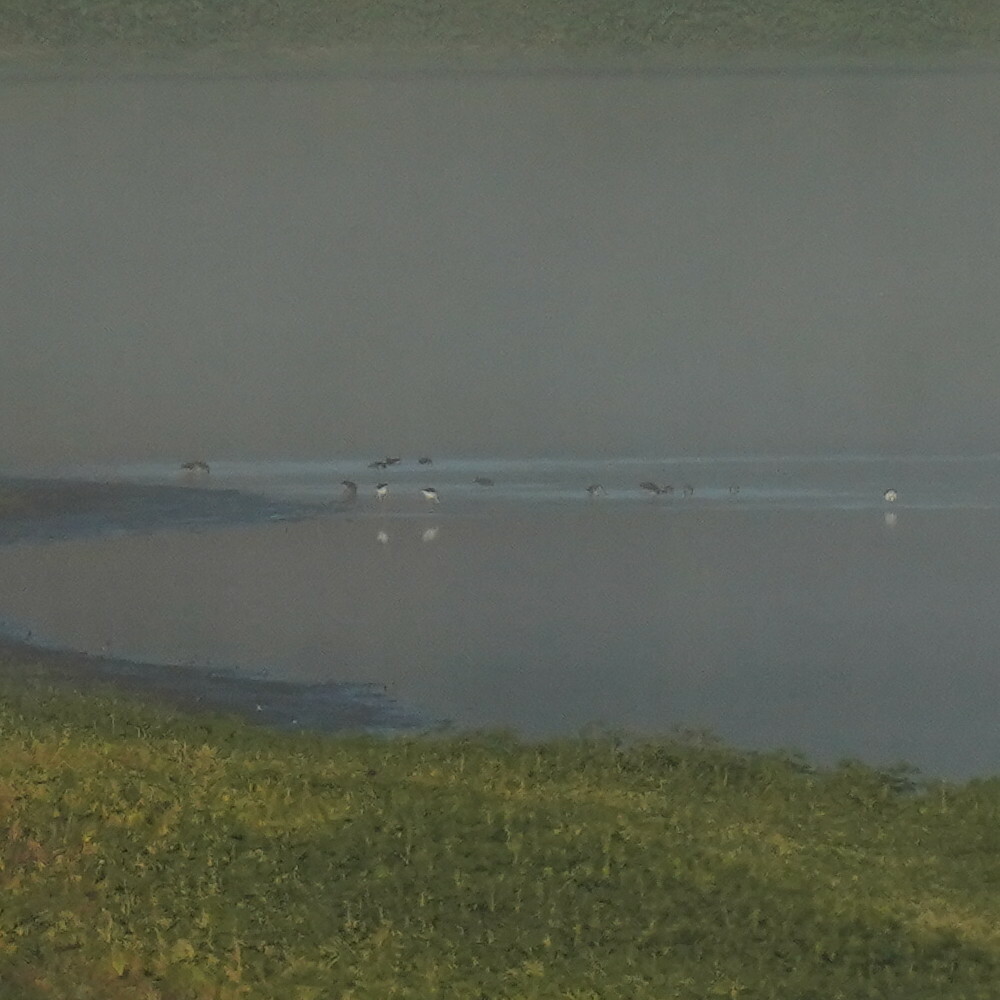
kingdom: Animalia
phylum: Chordata
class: Aves
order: Charadriiformes
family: Recurvirostridae
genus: Himantopus
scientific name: Himantopus mexicanus
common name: Black-necked stilt
